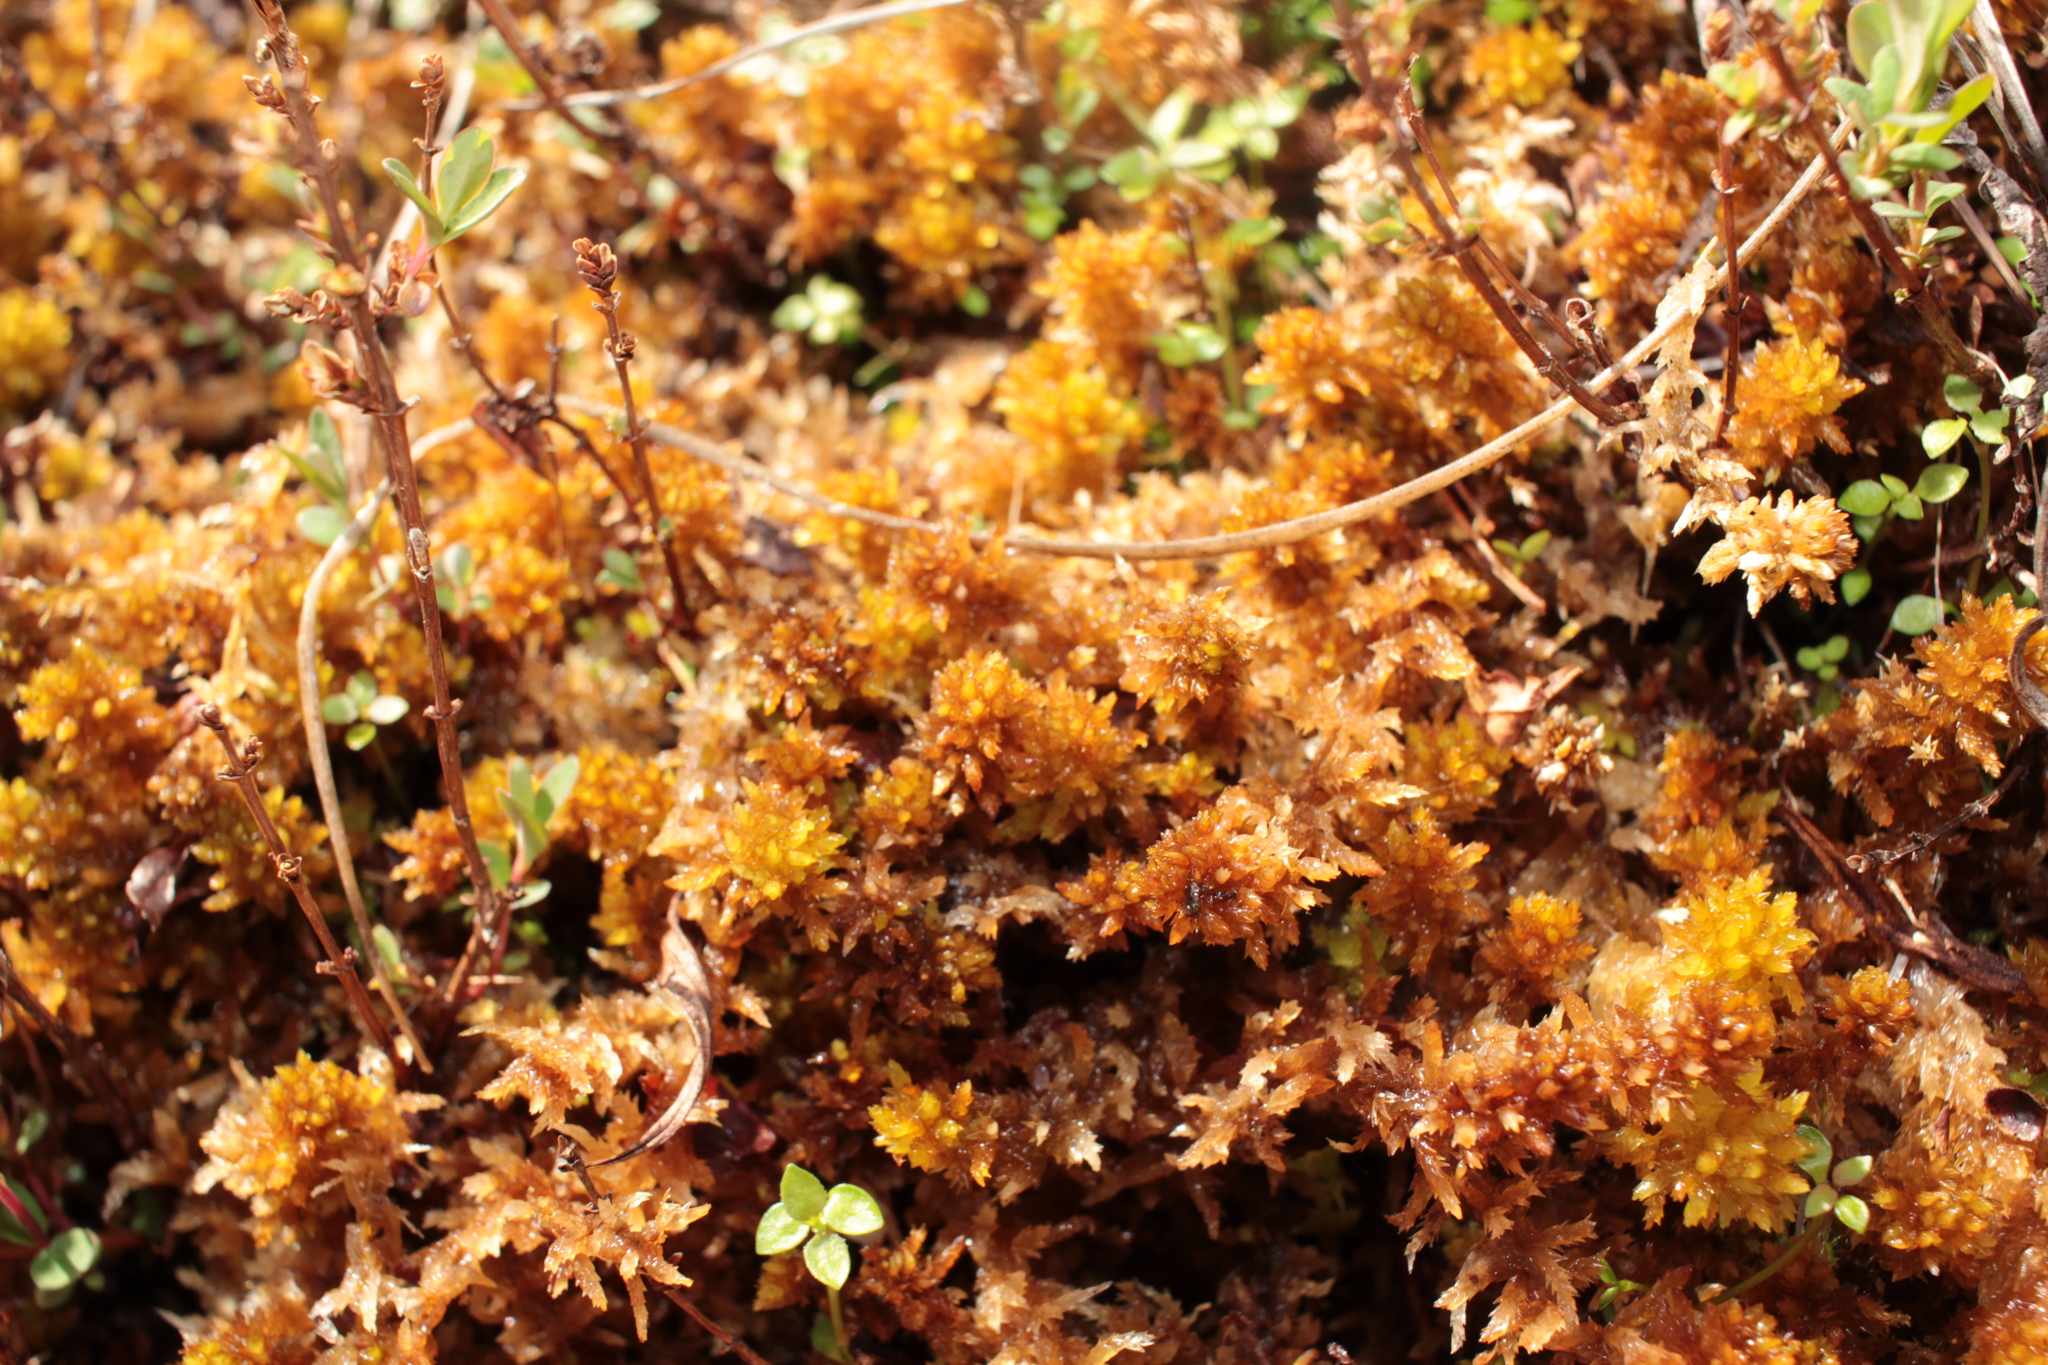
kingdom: Plantae
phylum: Bryophyta
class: Sphagnopsida
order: Sphagnales
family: Sphagnaceae
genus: Sphagnum
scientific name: Sphagnum
